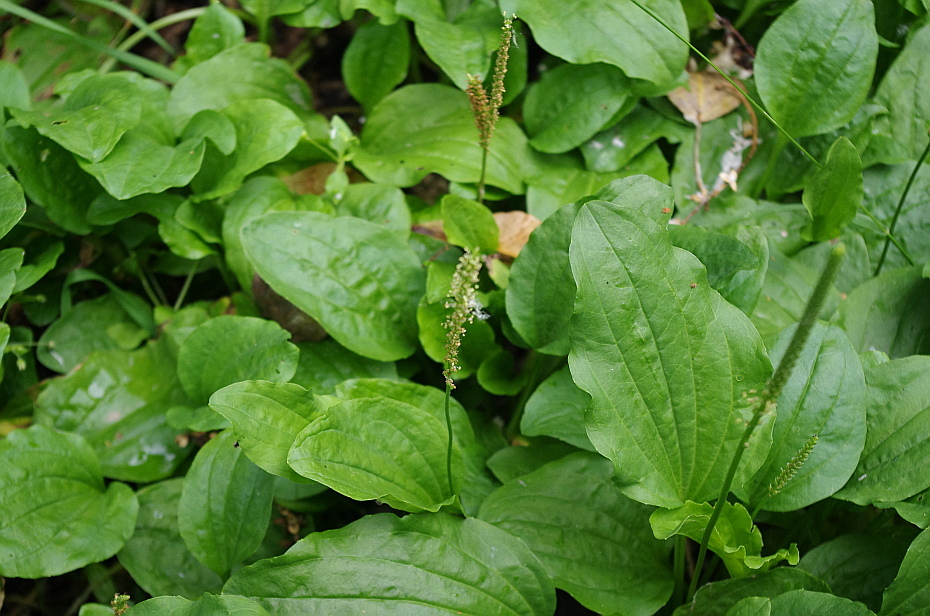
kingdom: Plantae
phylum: Tracheophyta
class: Magnoliopsida
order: Lamiales
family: Plantaginaceae
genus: Plantago
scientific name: Plantago major
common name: Common plantain
